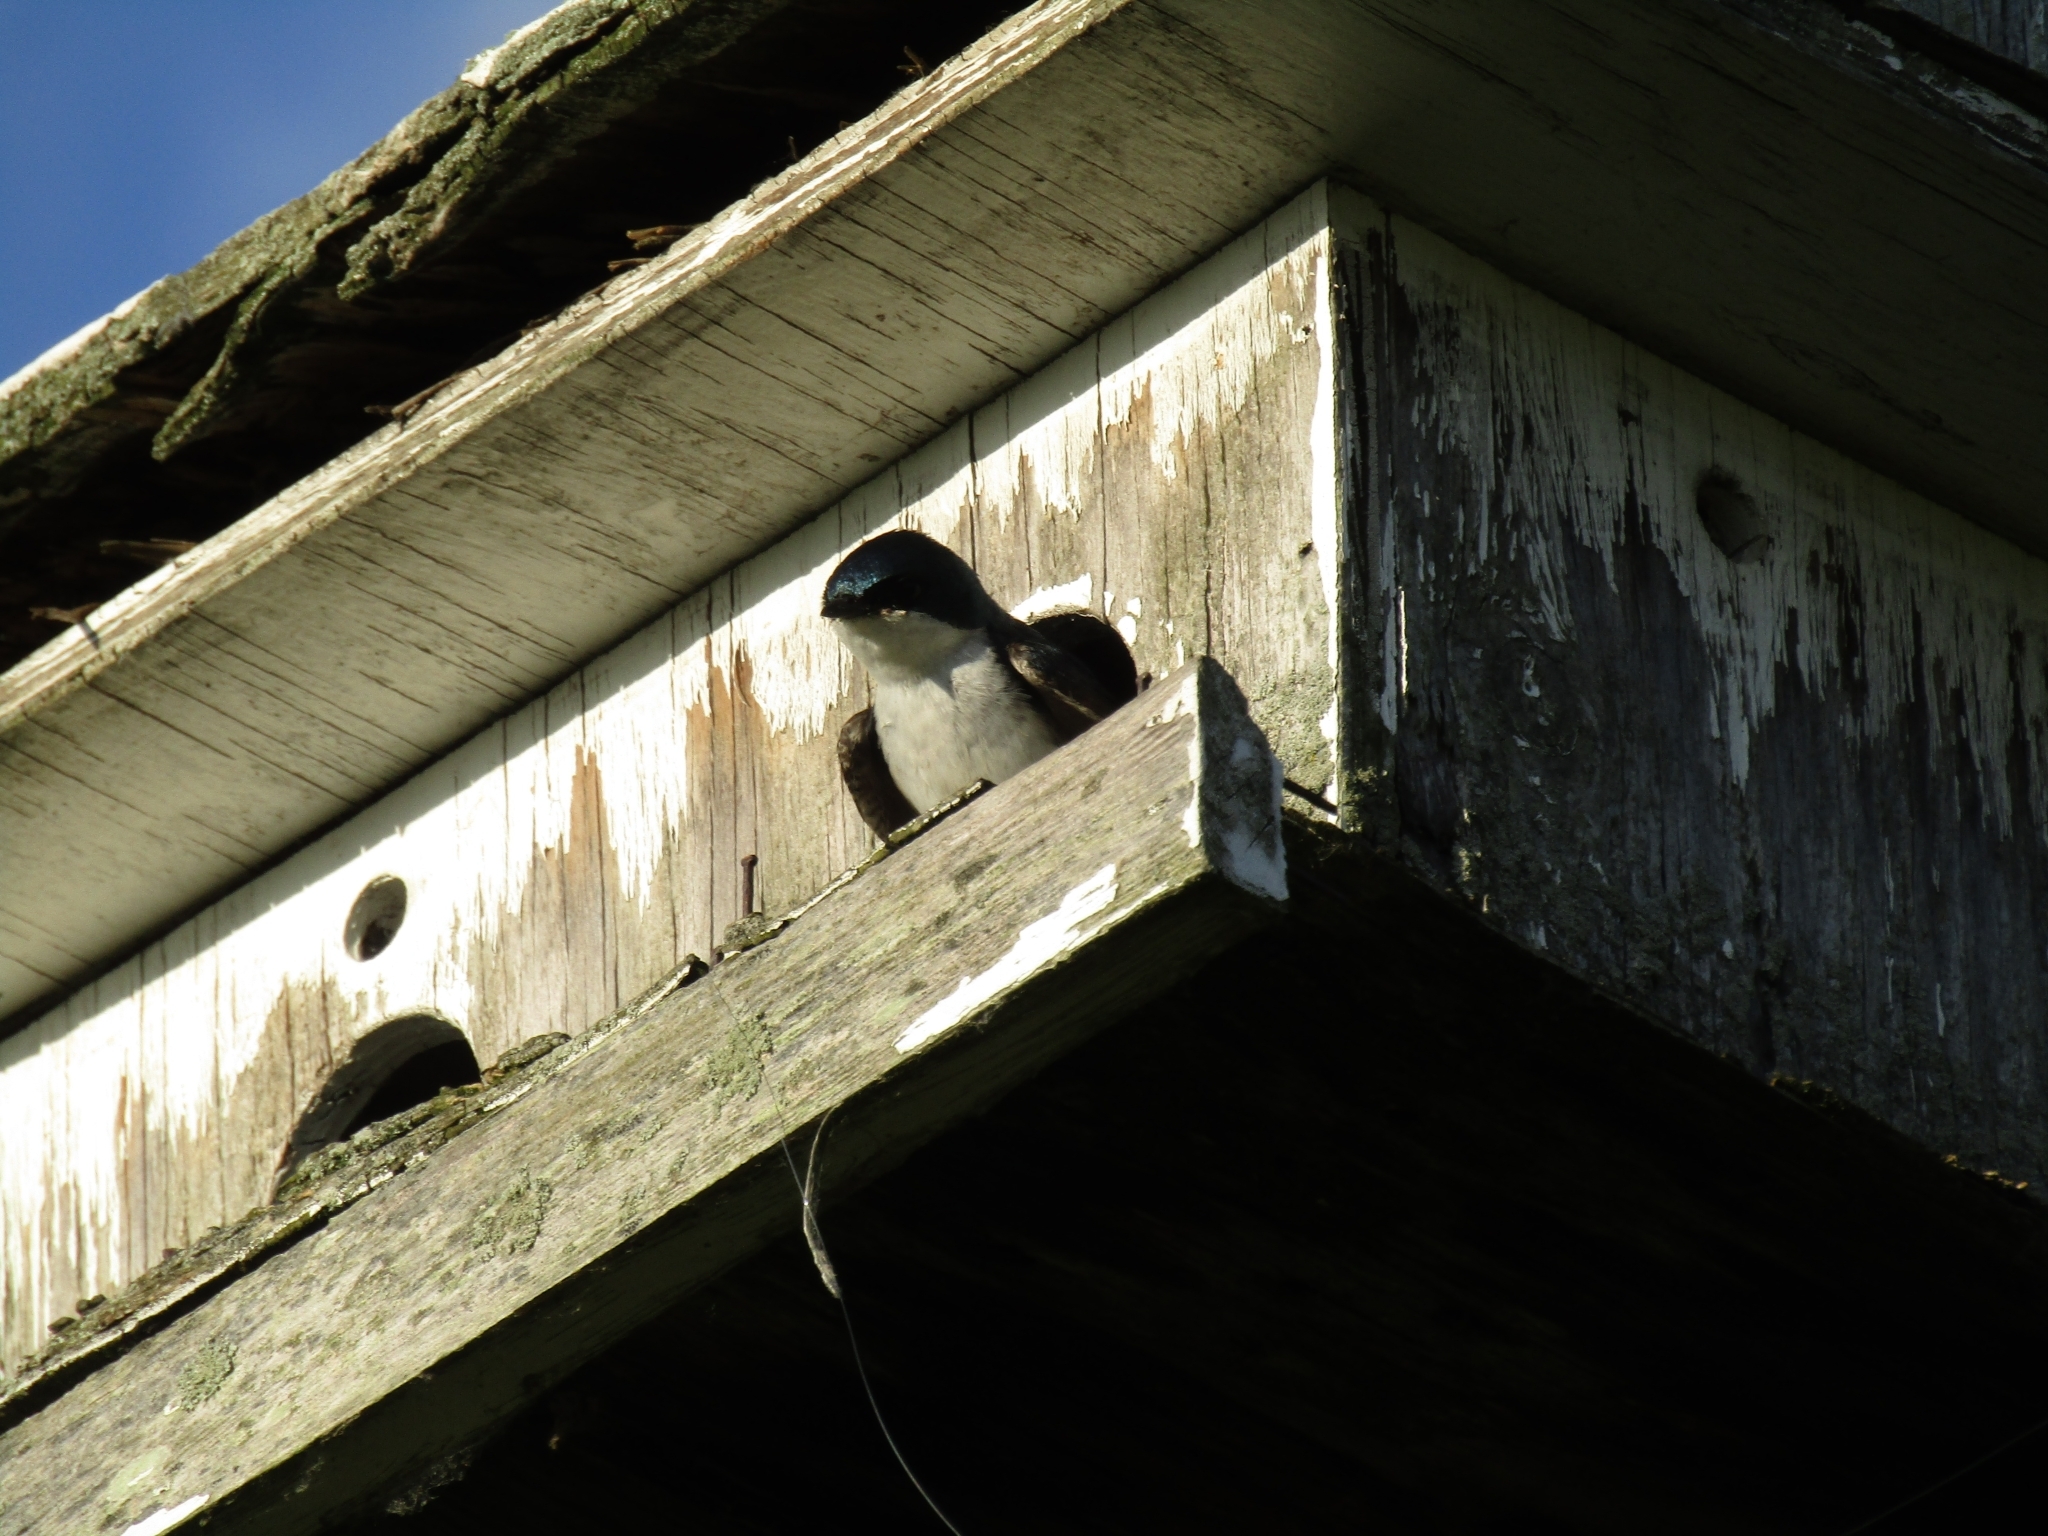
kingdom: Animalia
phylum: Chordata
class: Aves
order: Passeriformes
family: Hirundinidae
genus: Tachycineta
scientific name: Tachycineta bicolor
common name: Tree swallow
